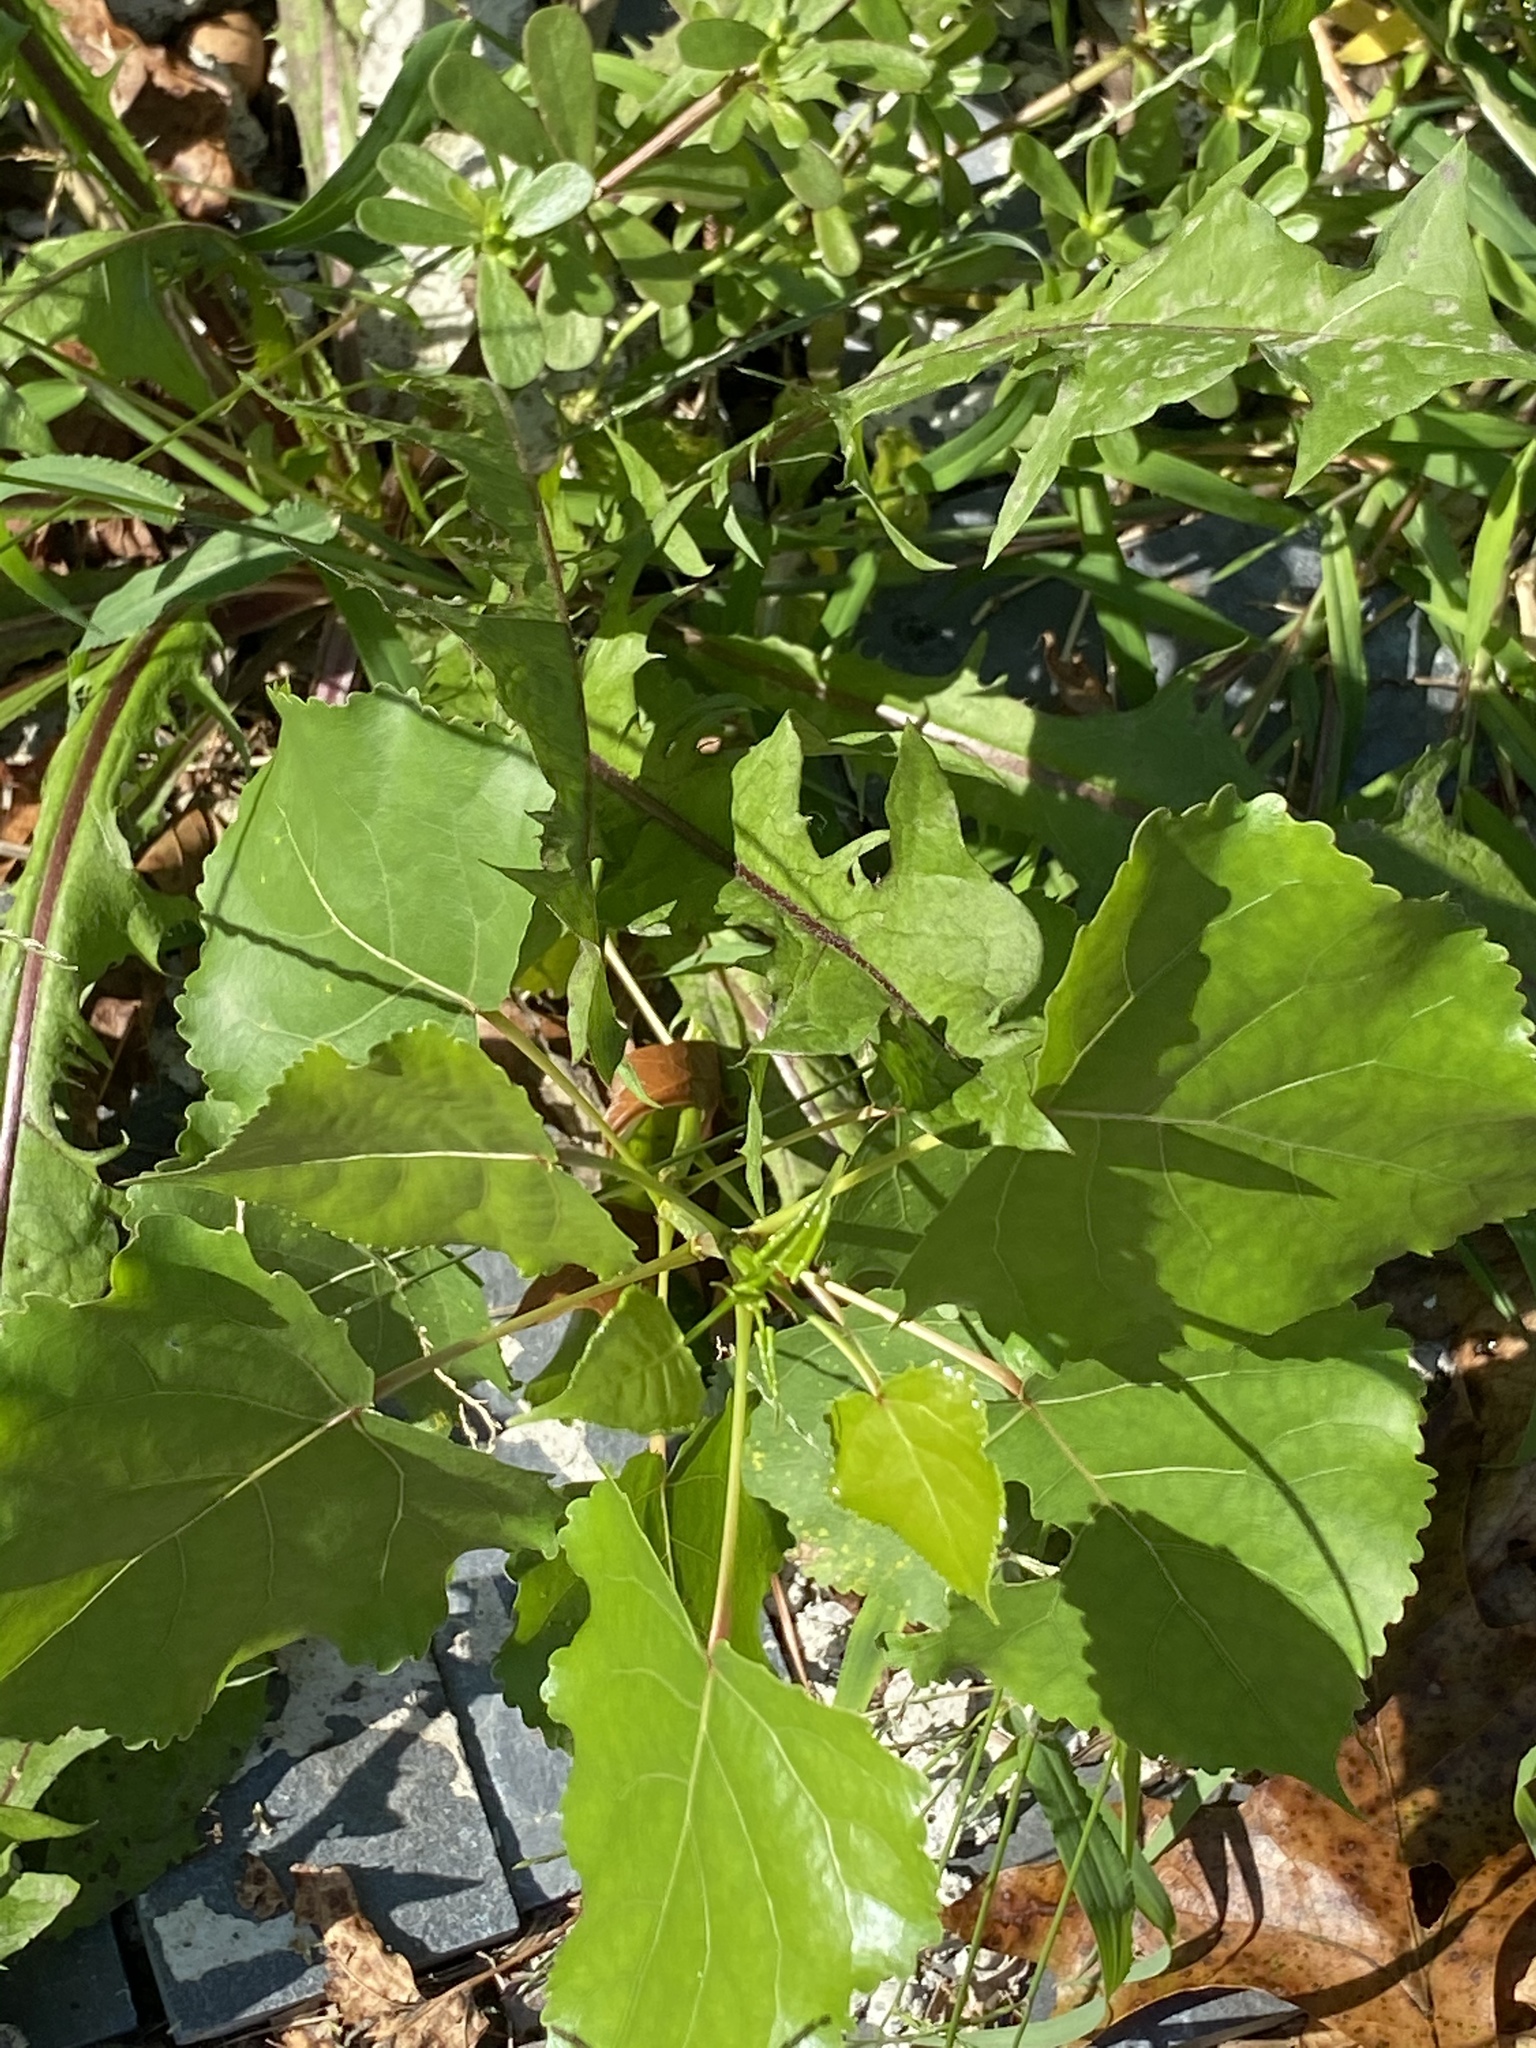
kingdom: Plantae
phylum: Tracheophyta
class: Magnoliopsida
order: Malpighiales
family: Salicaceae
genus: Populus
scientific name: Populus deltoides
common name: Eastern cottonwood
